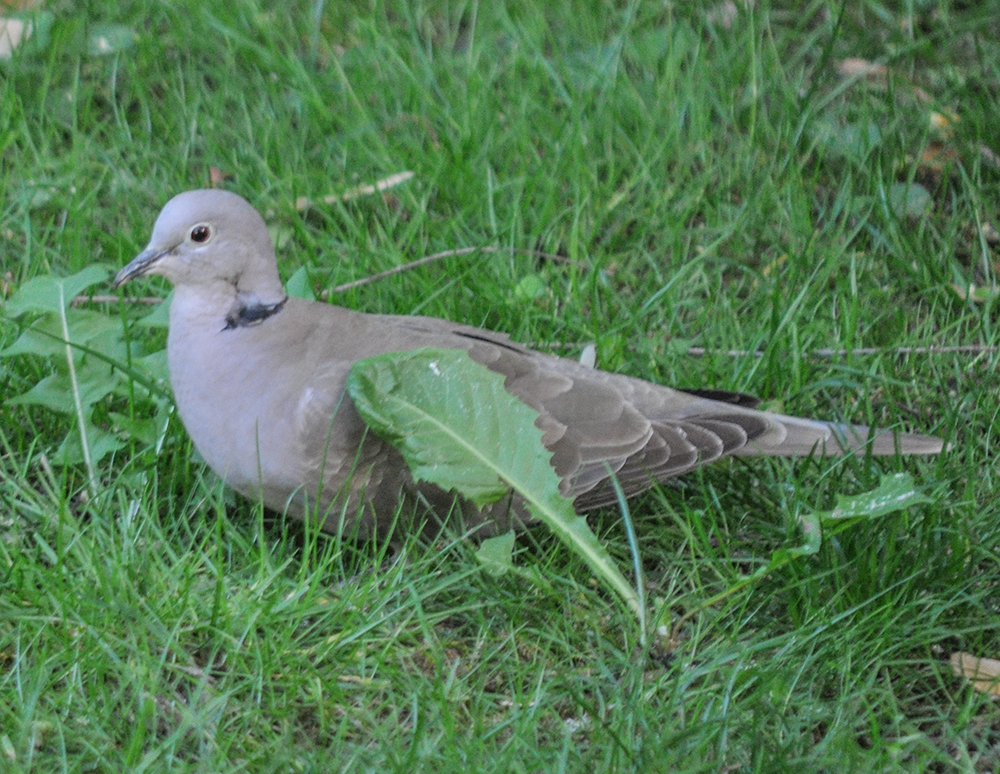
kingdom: Animalia
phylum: Chordata
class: Aves
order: Columbiformes
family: Columbidae
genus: Streptopelia
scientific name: Streptopelia decaocto
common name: Eurasian collared dove
